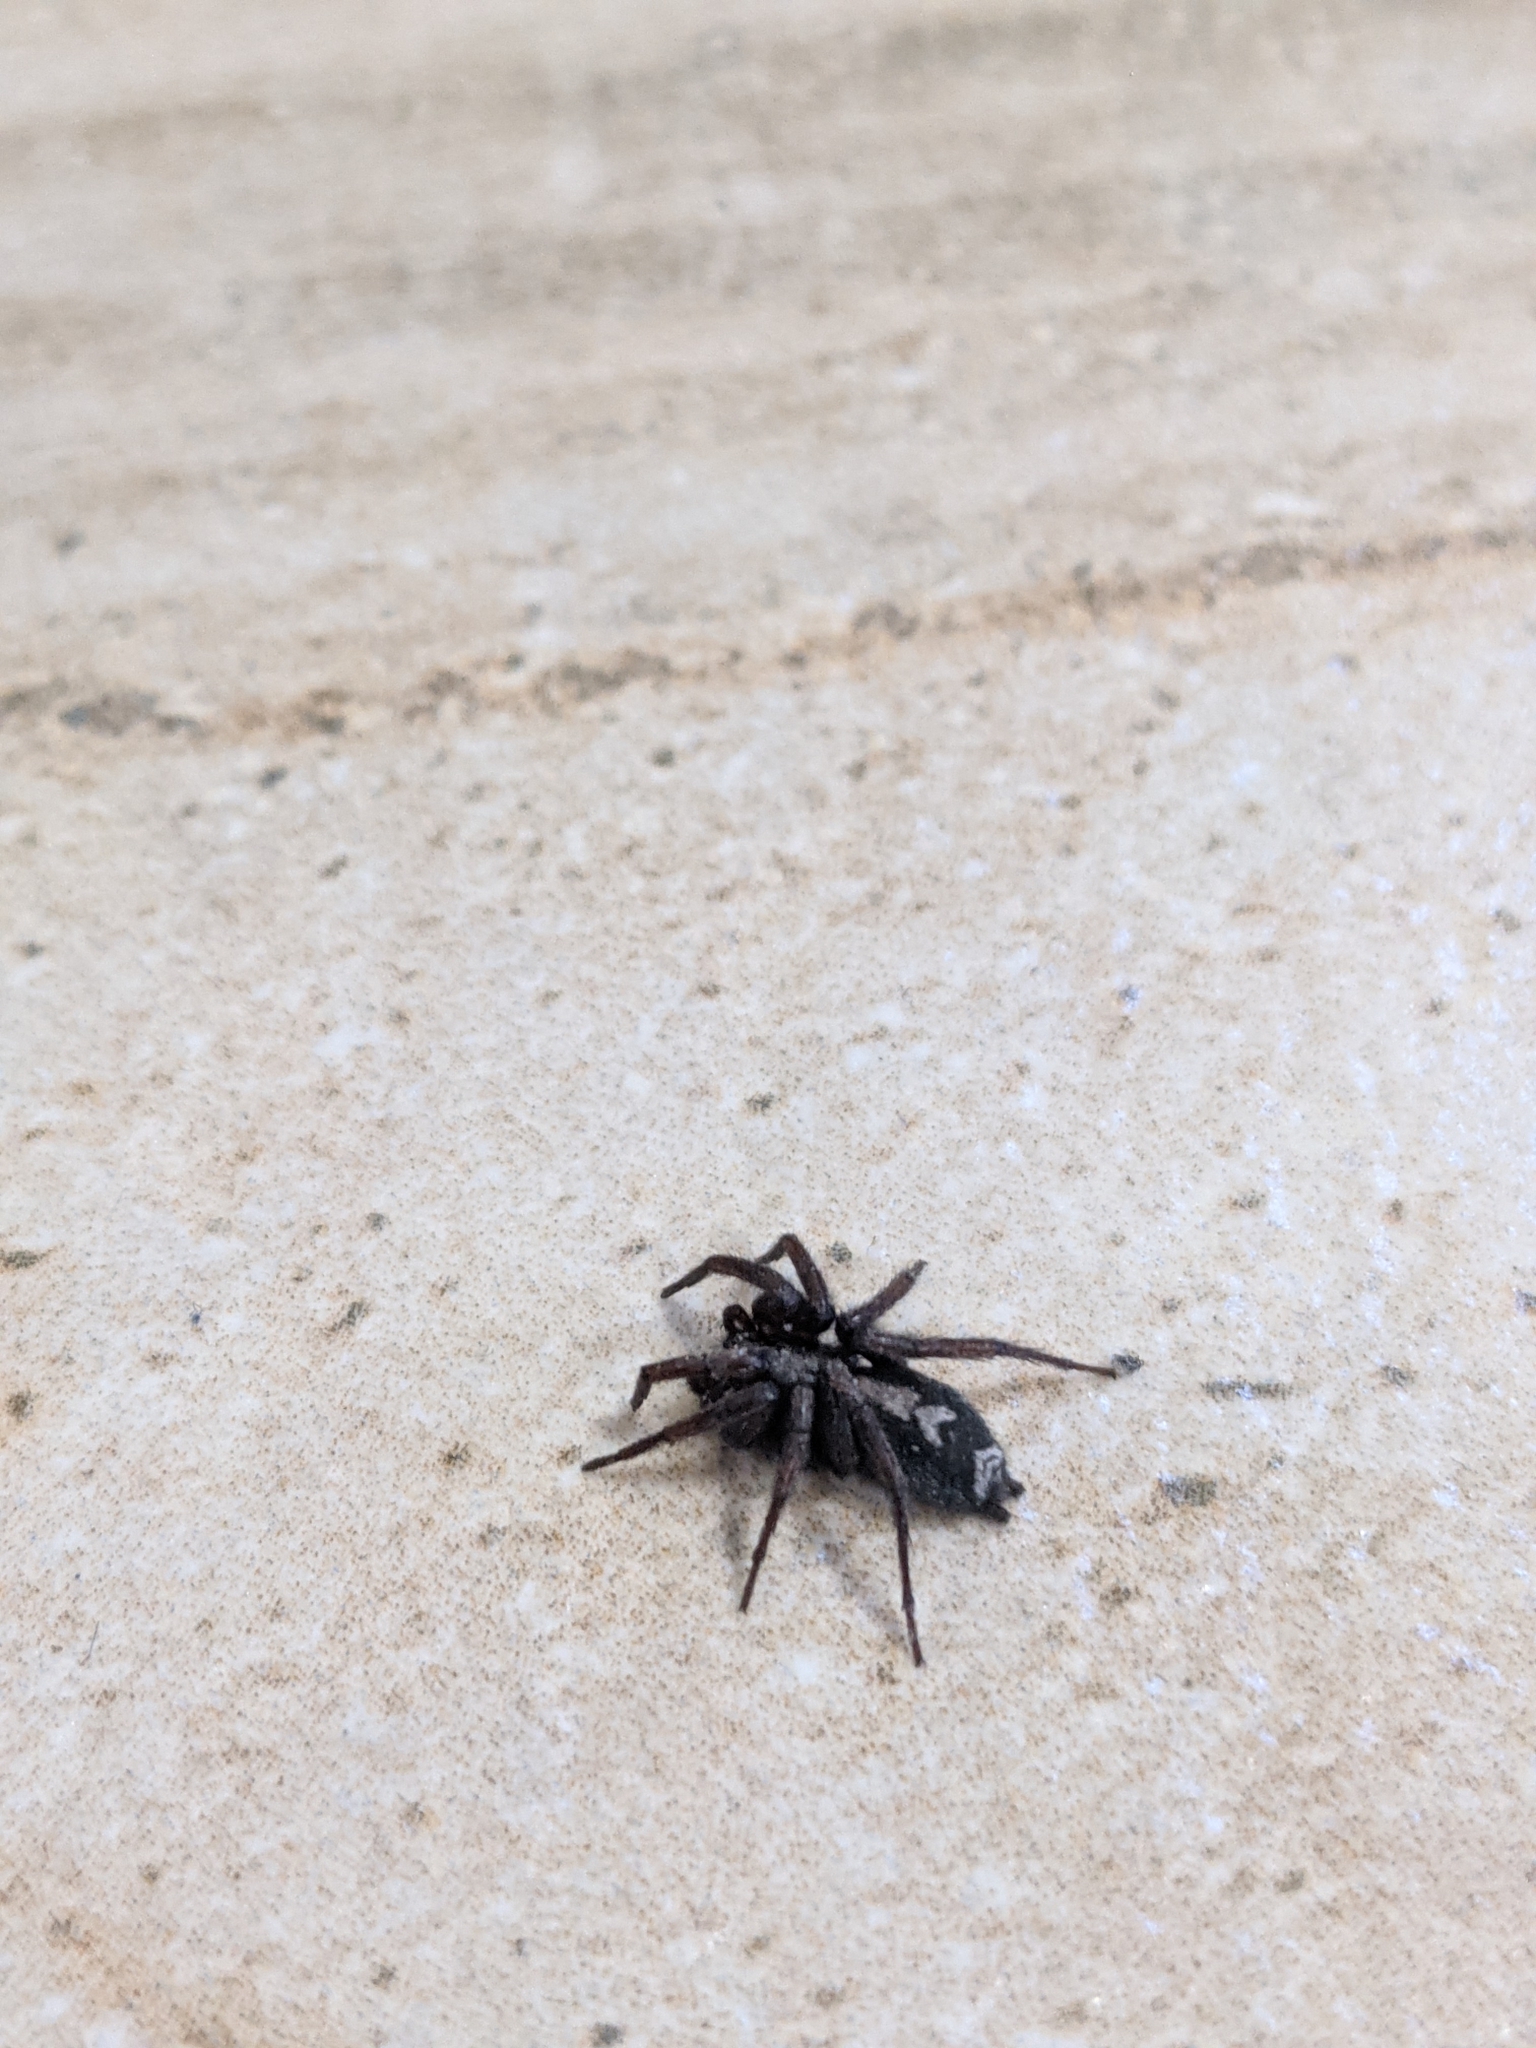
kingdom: Animalia
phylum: Arthropoda
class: Arachnida
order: Araneae
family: Gnaphosidae
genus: Herpyllus
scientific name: Herpyllus ecclesiasticus
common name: Eastern parson spider
